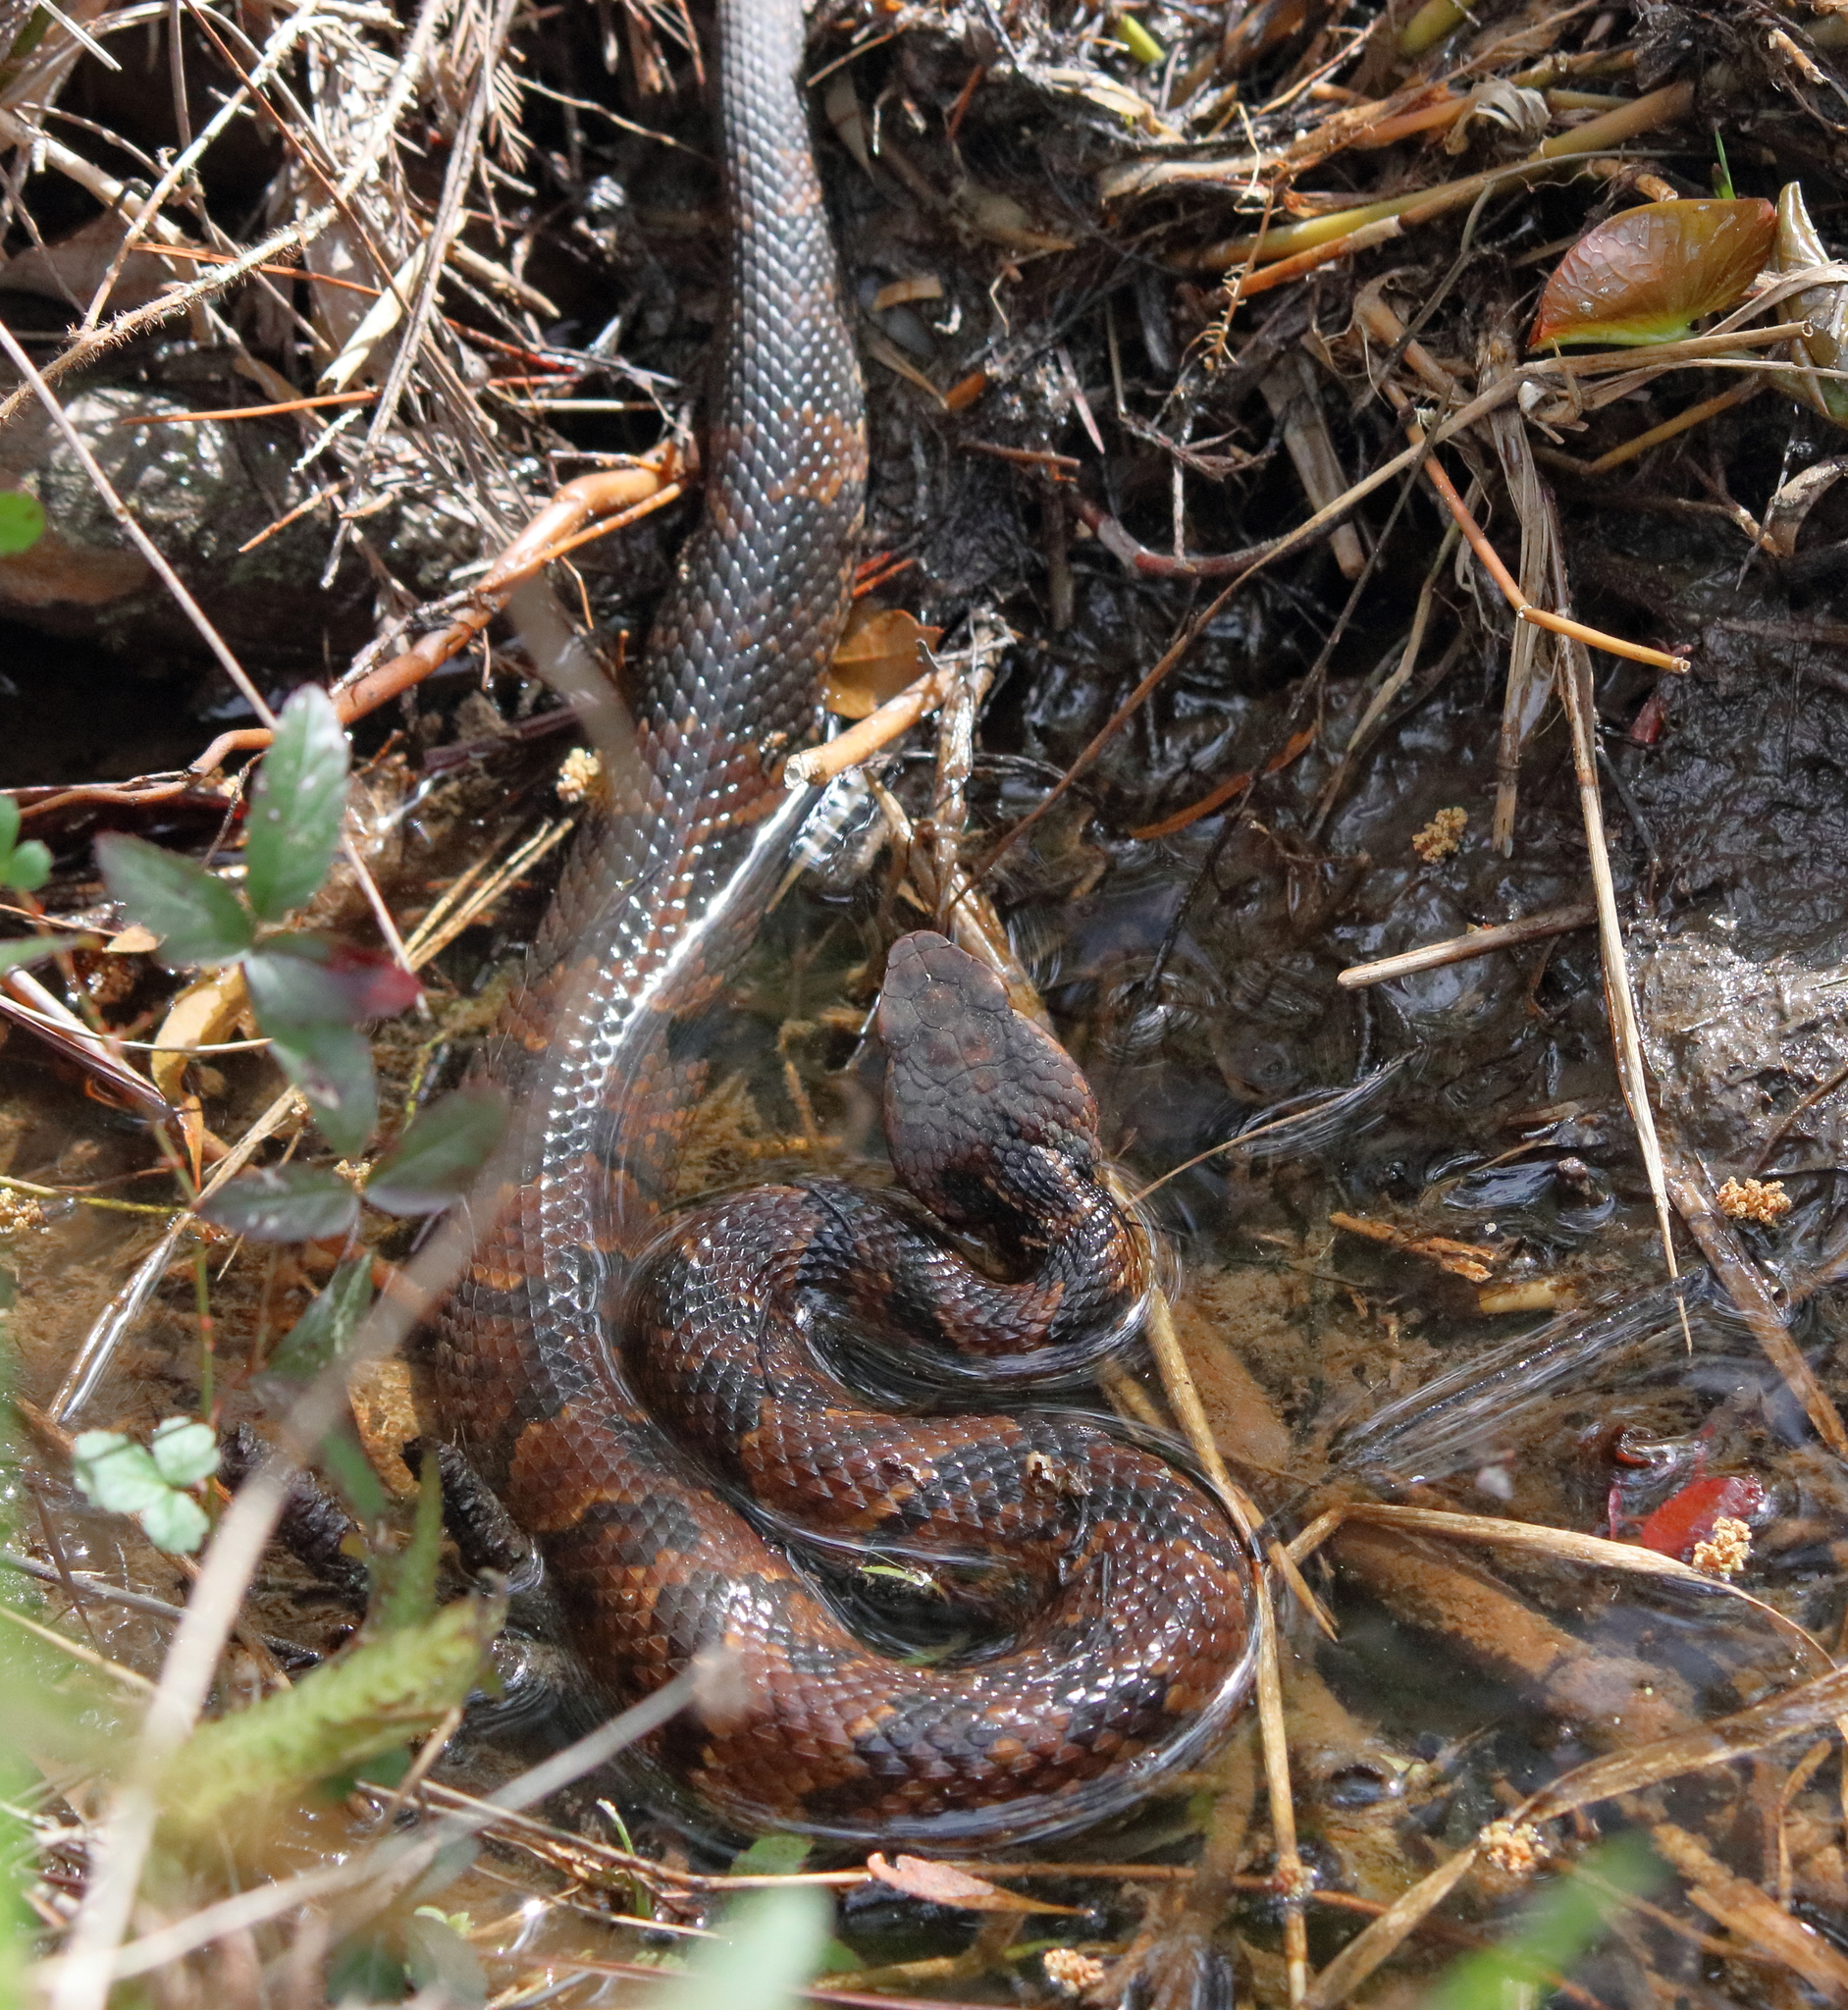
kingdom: Animalia
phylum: Chordata
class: Squamata
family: Viperidae
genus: Agkistrodon
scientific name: Agkistrodon piscivorus
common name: Cottonmouth
